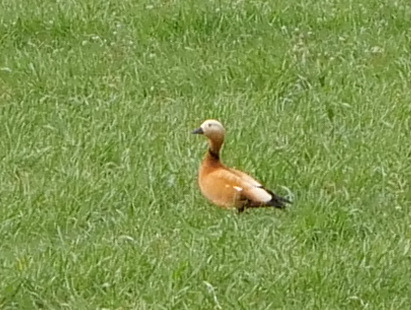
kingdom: Animalia
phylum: Chordata
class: Aves
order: Anseriformes
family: Anatidae
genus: Tadorna
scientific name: Tadorna ferruginea
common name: Ruddy shelduck
